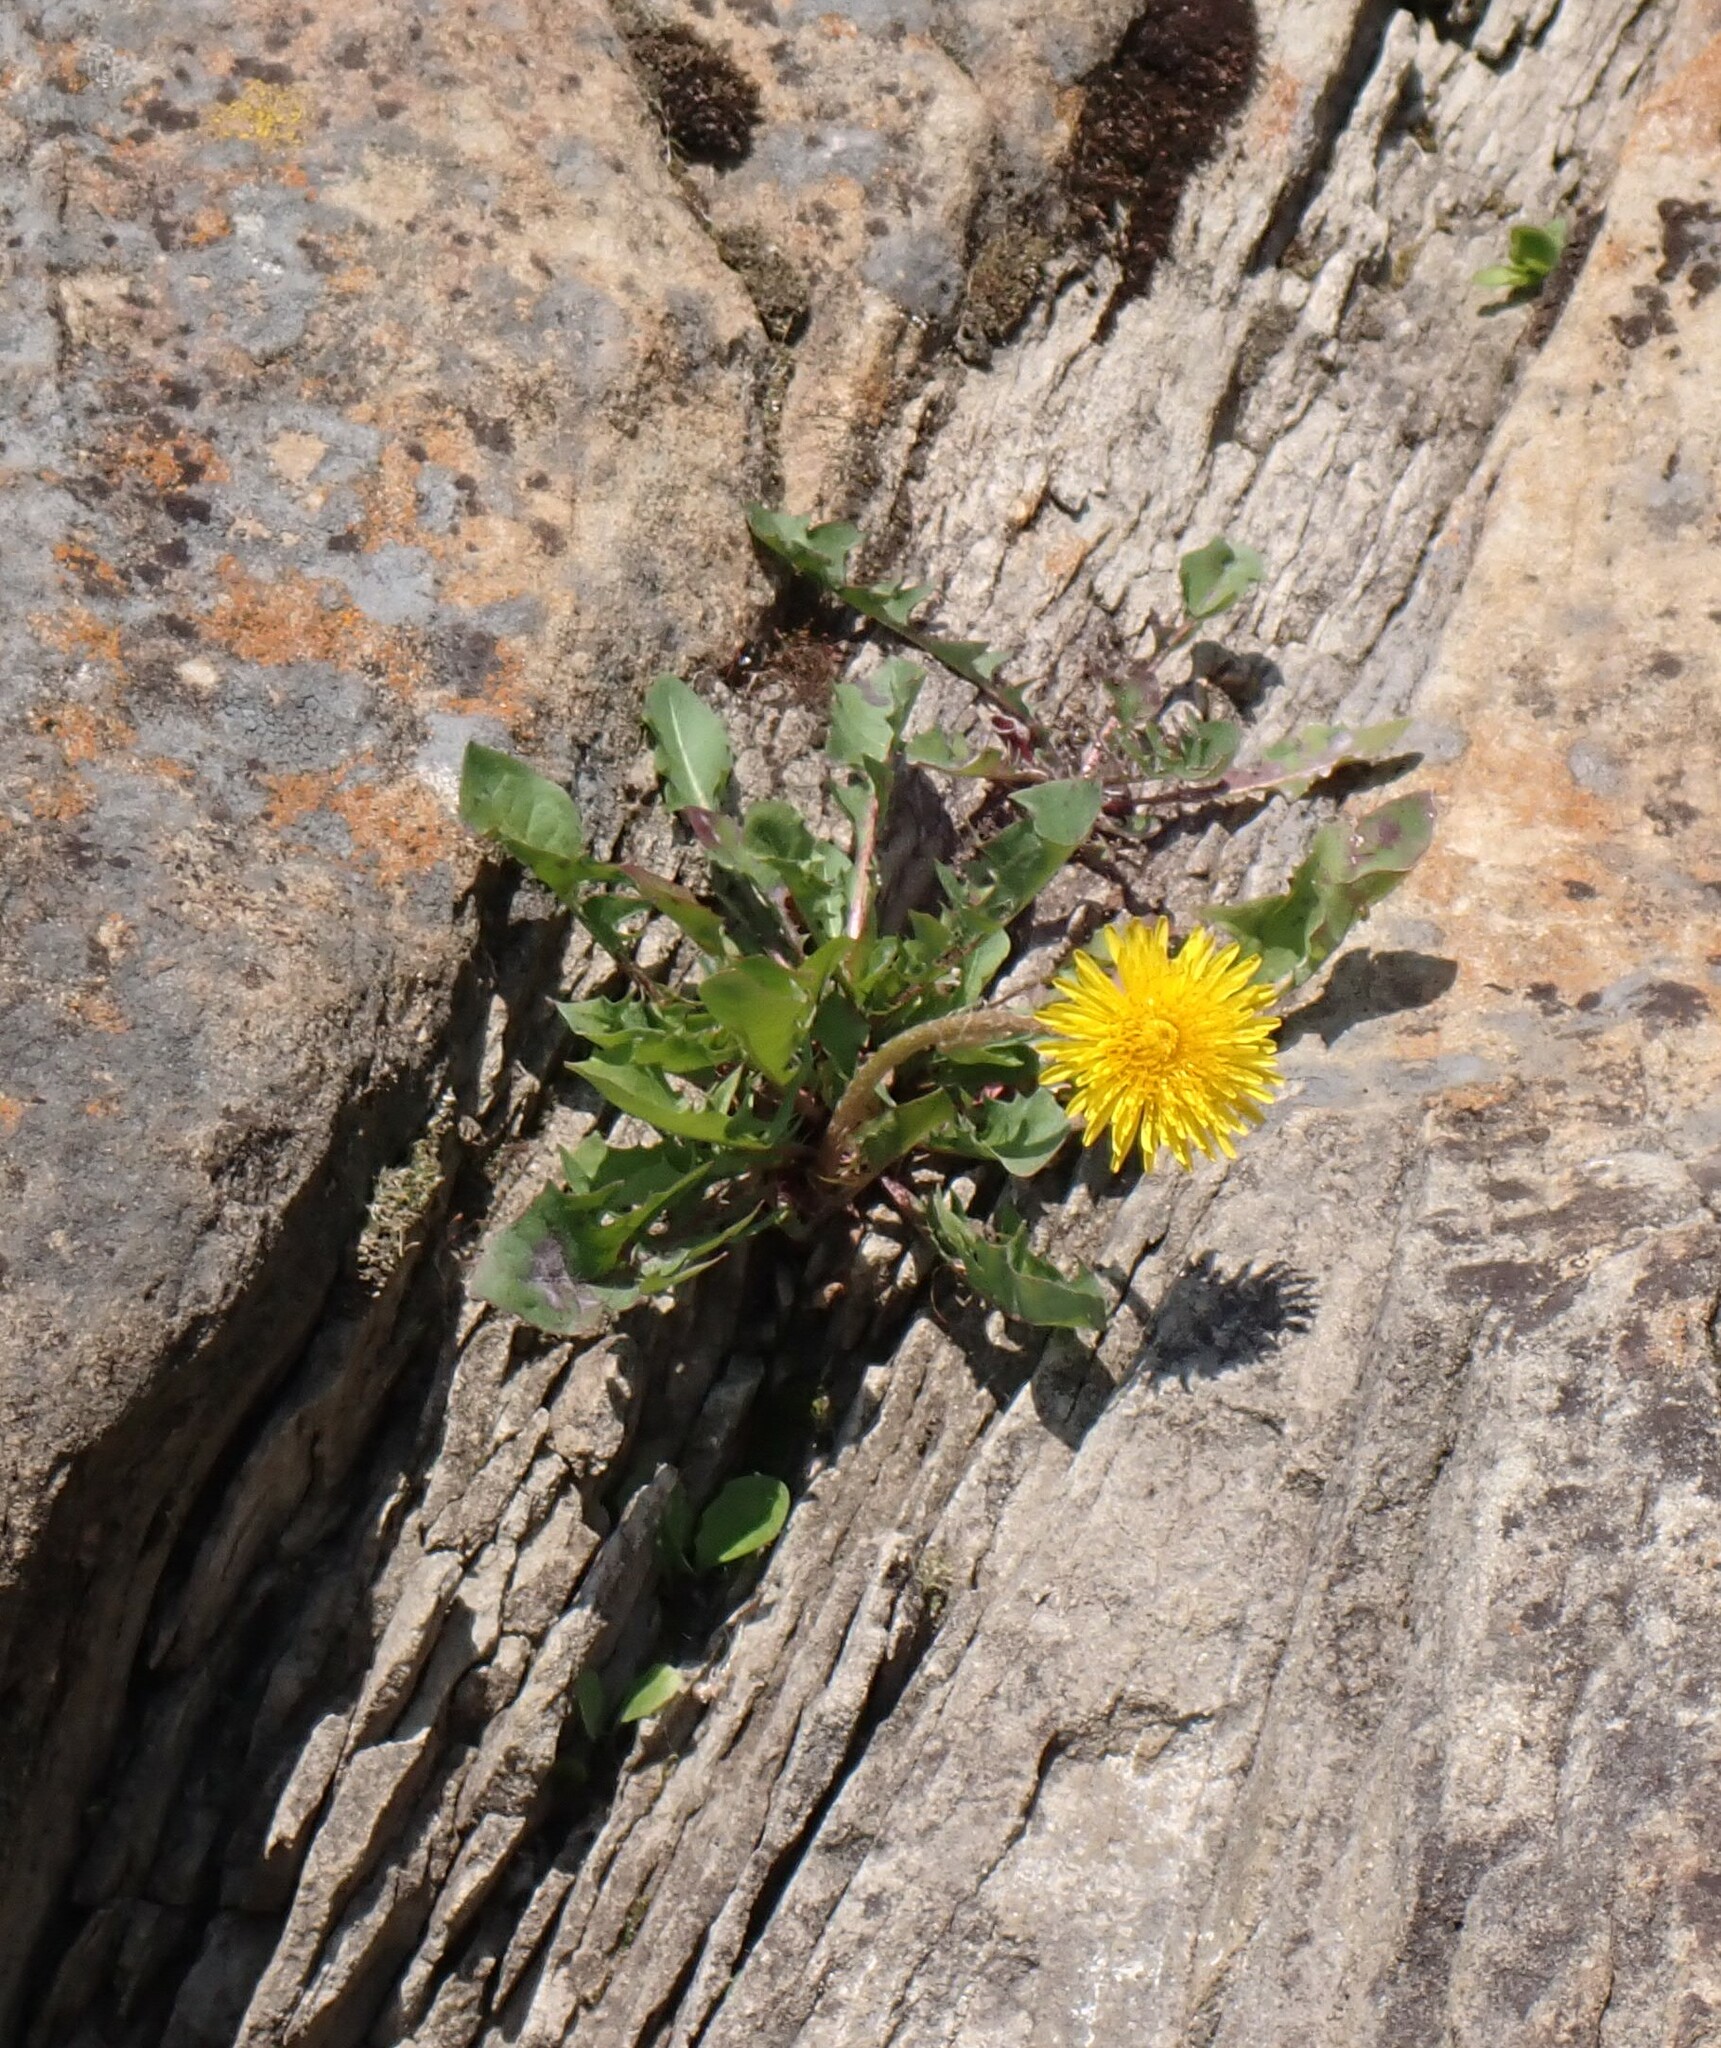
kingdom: Plantae
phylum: Tracheophyta
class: Magnoliopsida
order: Asterales
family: Asteraceae
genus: Taraxacum
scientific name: Taraxacum officinale
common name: Common dandelion
